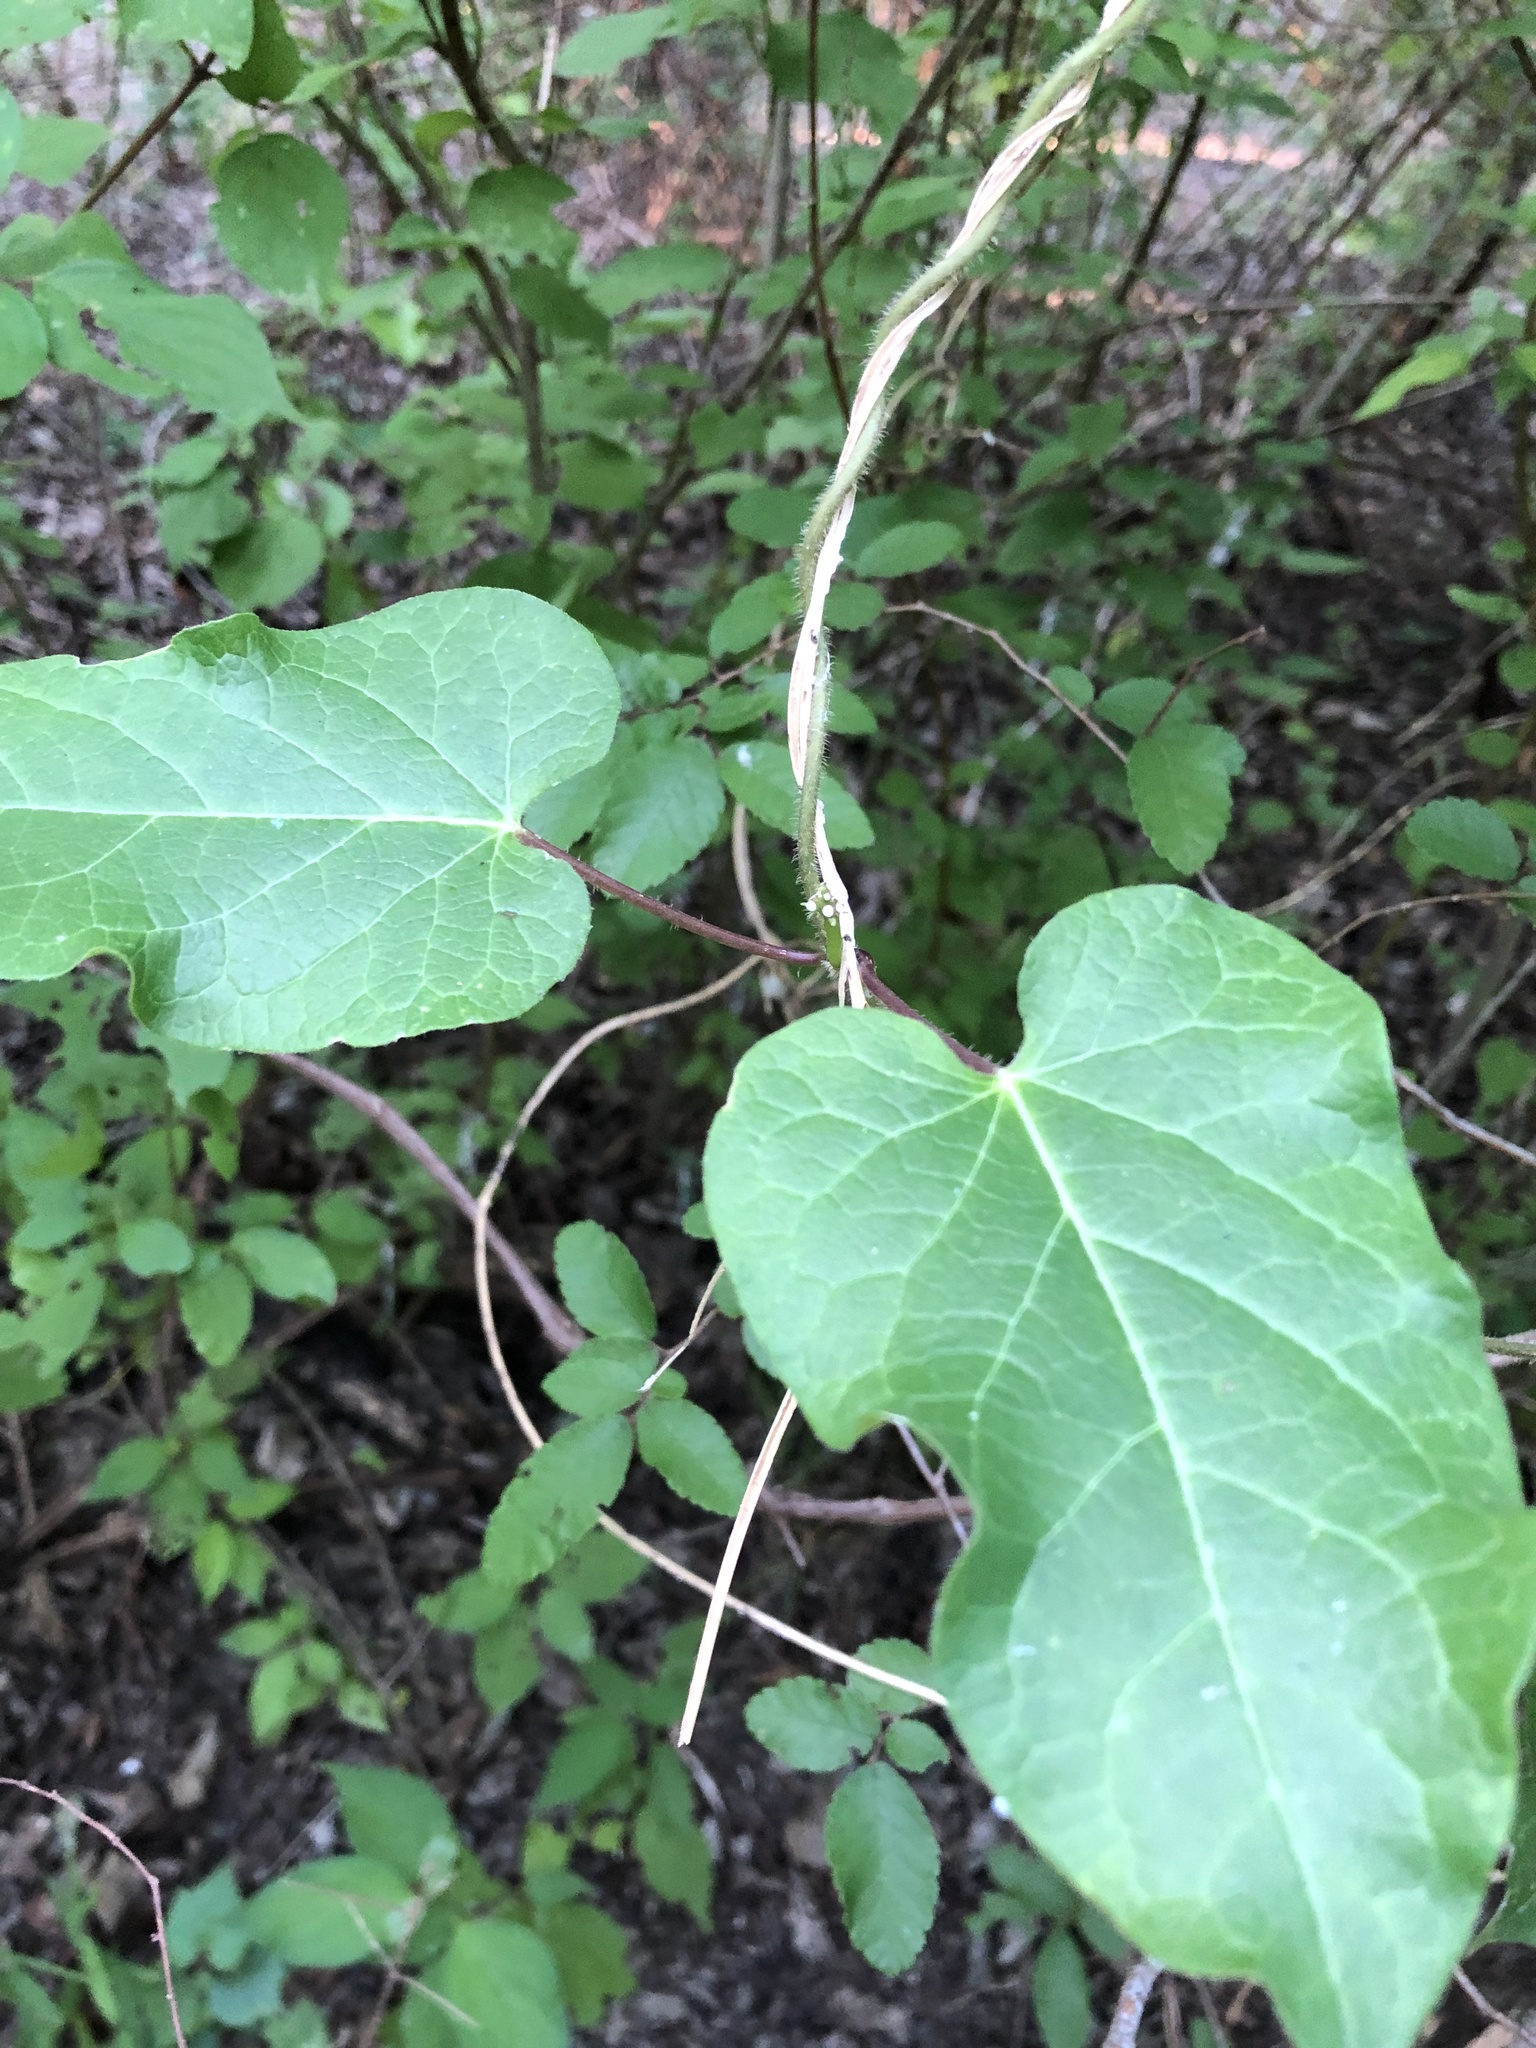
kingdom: Plantae
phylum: Tracheophyta
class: Magnoliopsida
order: Gentianales
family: Apocynaceae
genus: Dictyanthus
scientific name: Dictyanthus reticulatus
